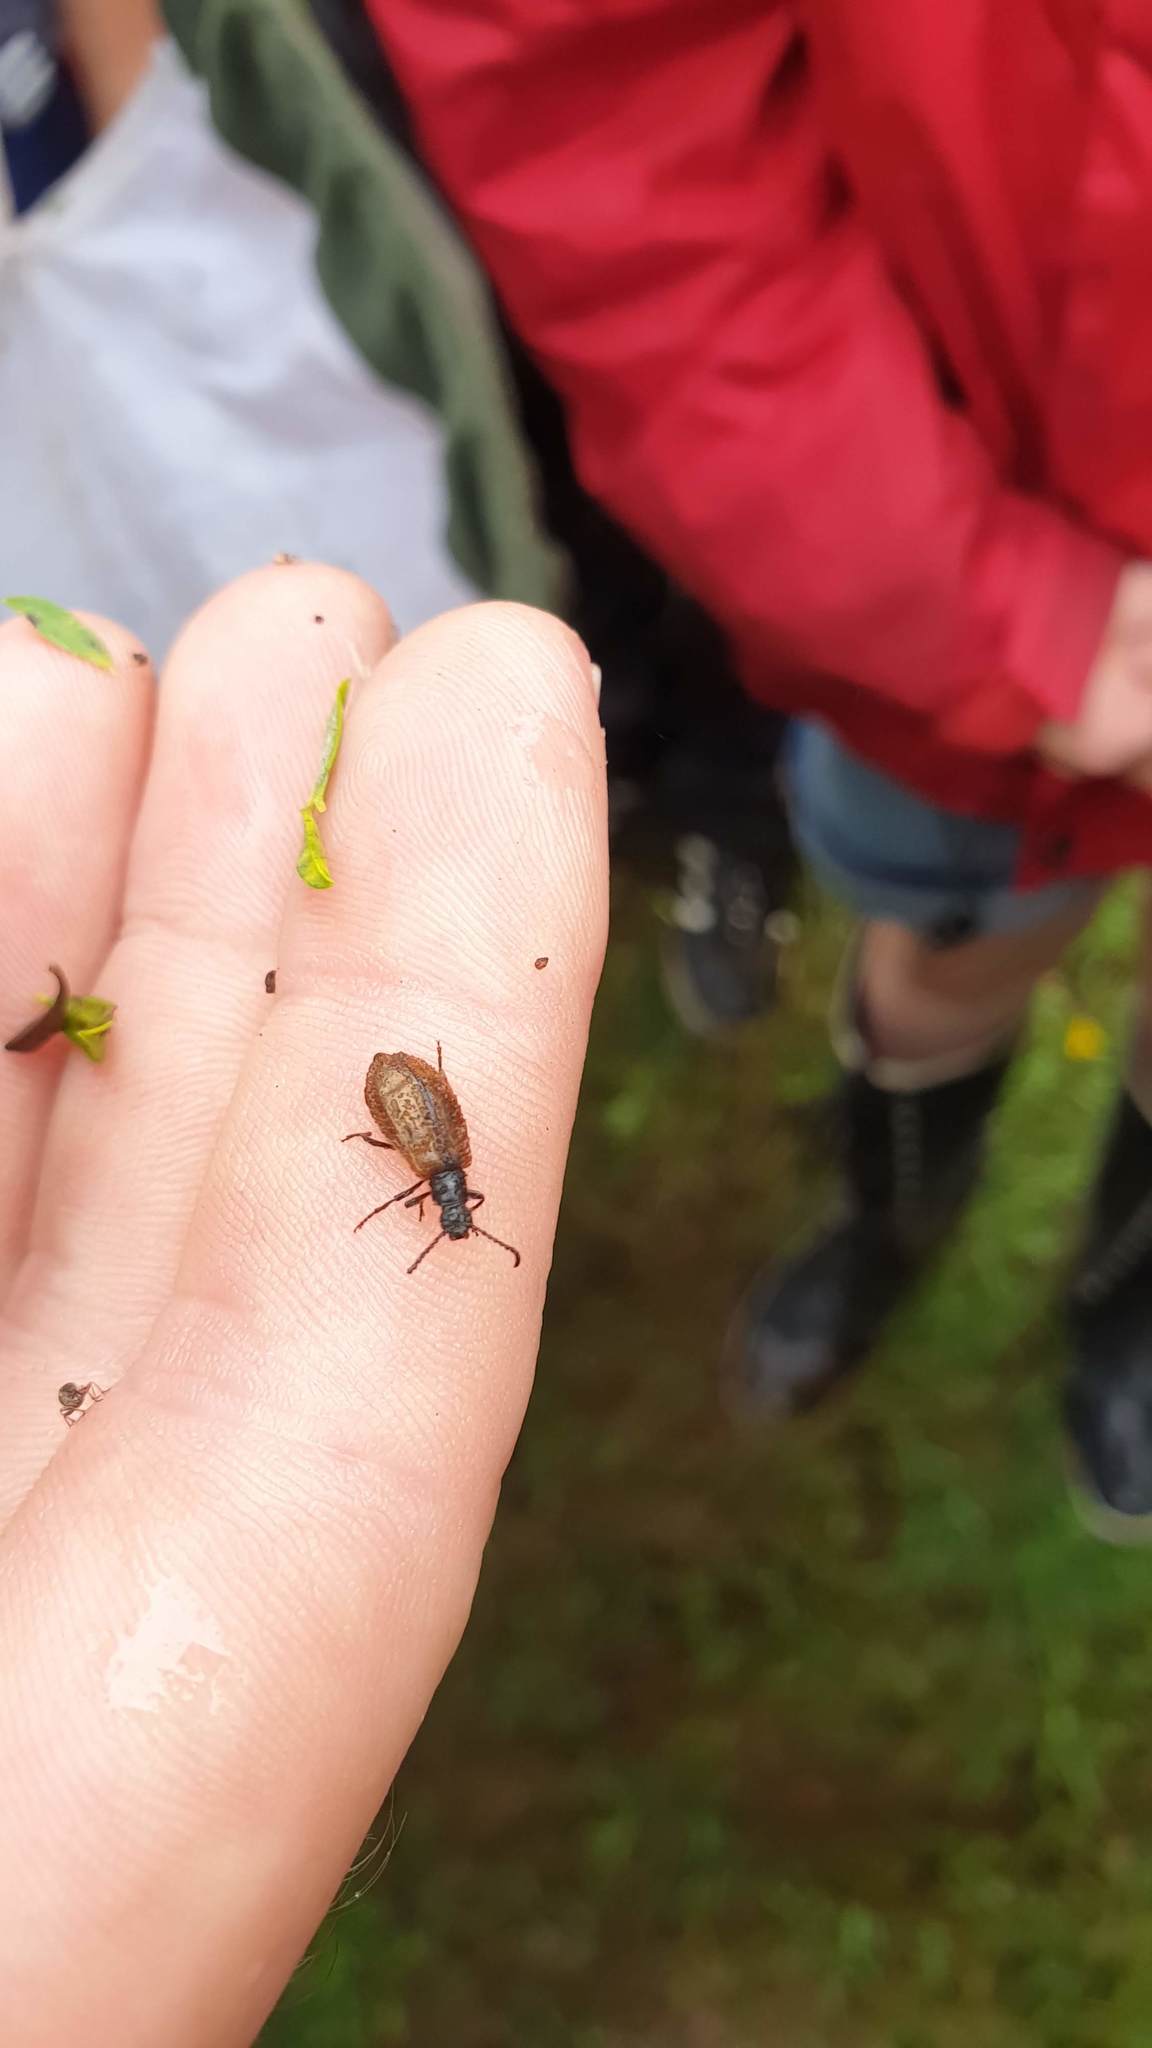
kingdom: Animalia
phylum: Arthropoda
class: Insecta
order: Coleoptera
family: Tenebrionidae
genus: Lagria
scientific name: Lagria hirta
